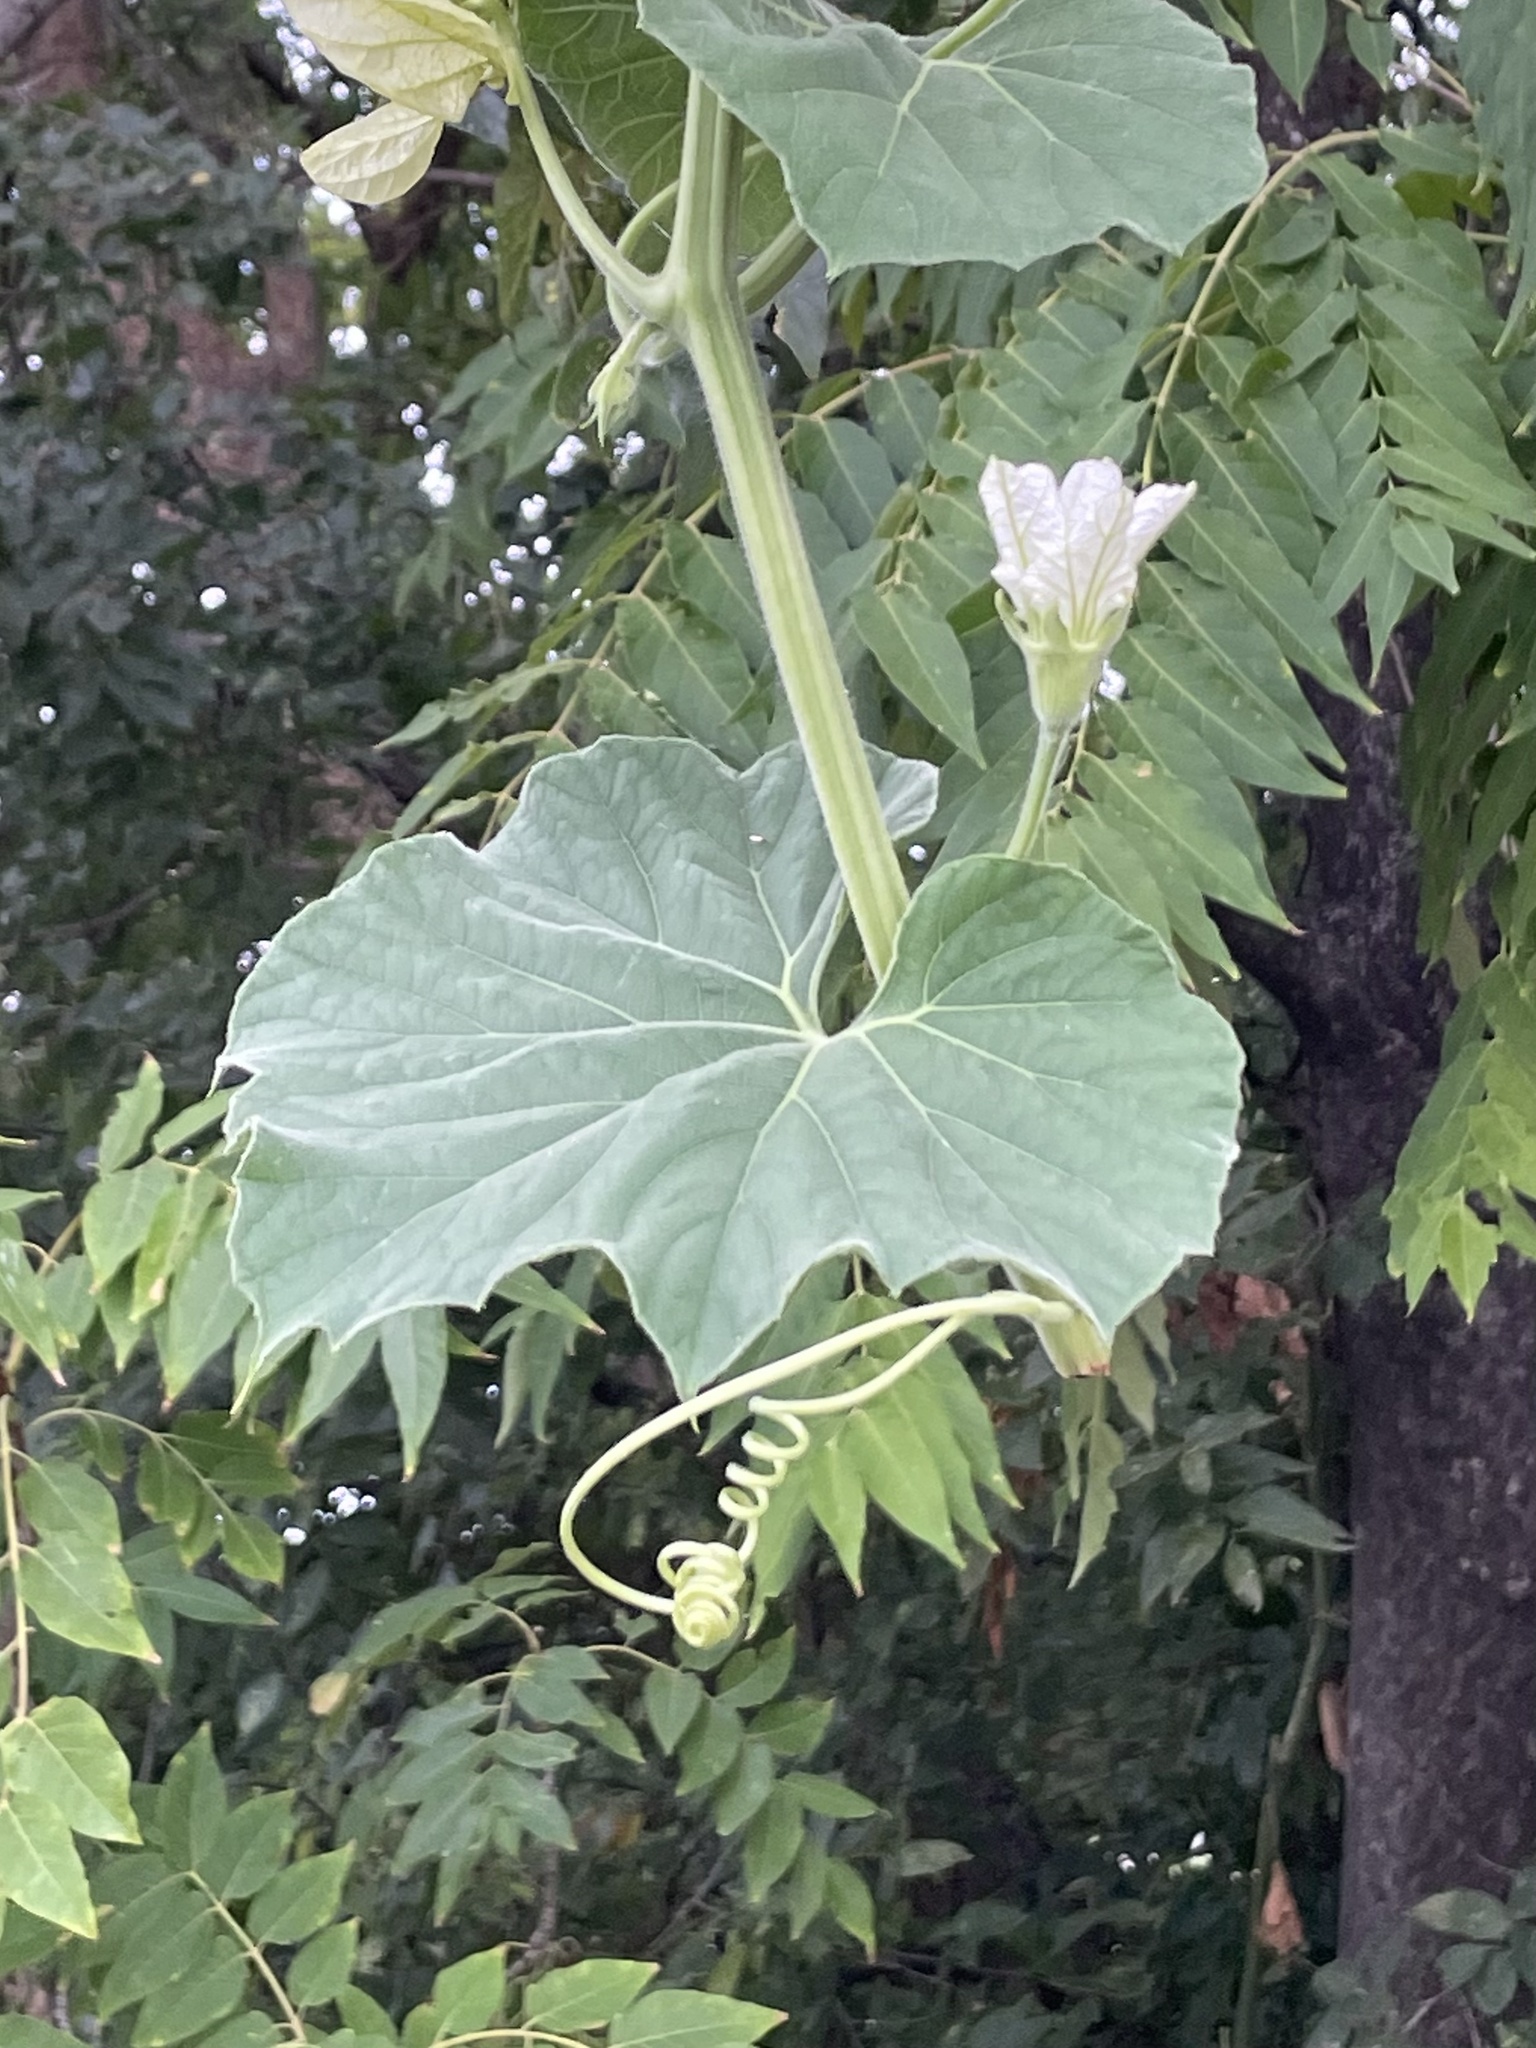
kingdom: Plantae
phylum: Tracheophyta
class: Magnoliopsida
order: Cucurbitales
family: Cucurbitaceae
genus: Lagenaria
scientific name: Lagenaria siceraria
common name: Bottle gourd
